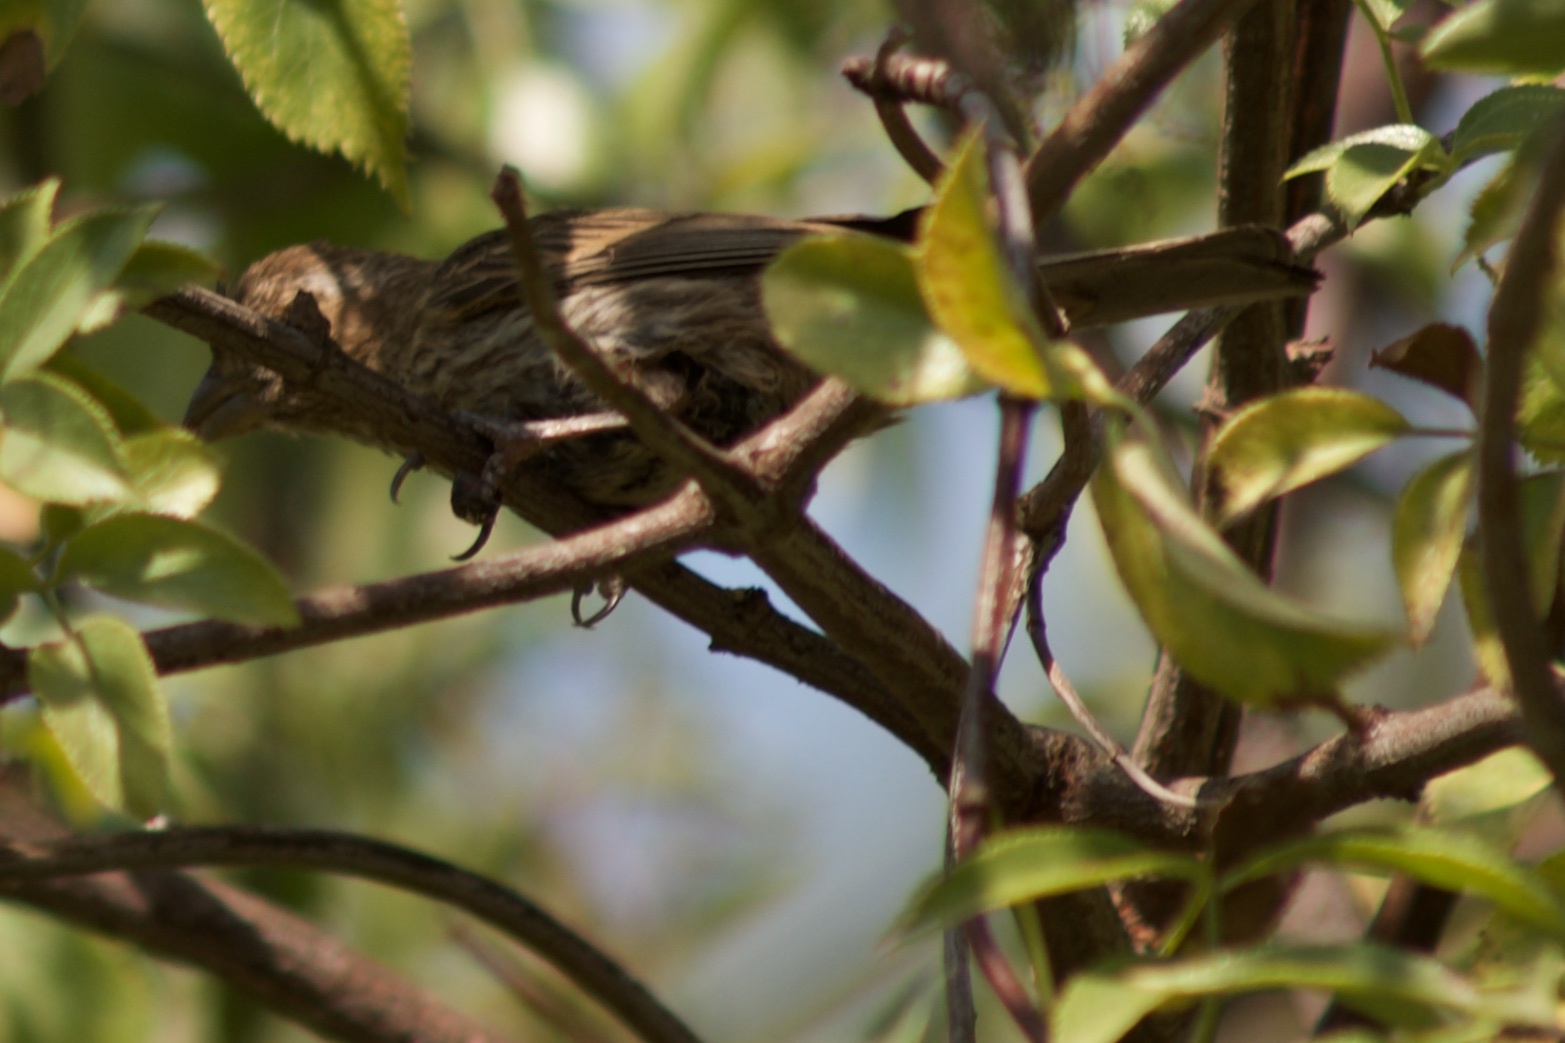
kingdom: Animalia
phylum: Chordata
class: Aves
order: Passeriformes
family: Fringillidae
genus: Haemorhous
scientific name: Haemorhous mexicanus
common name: House finch
